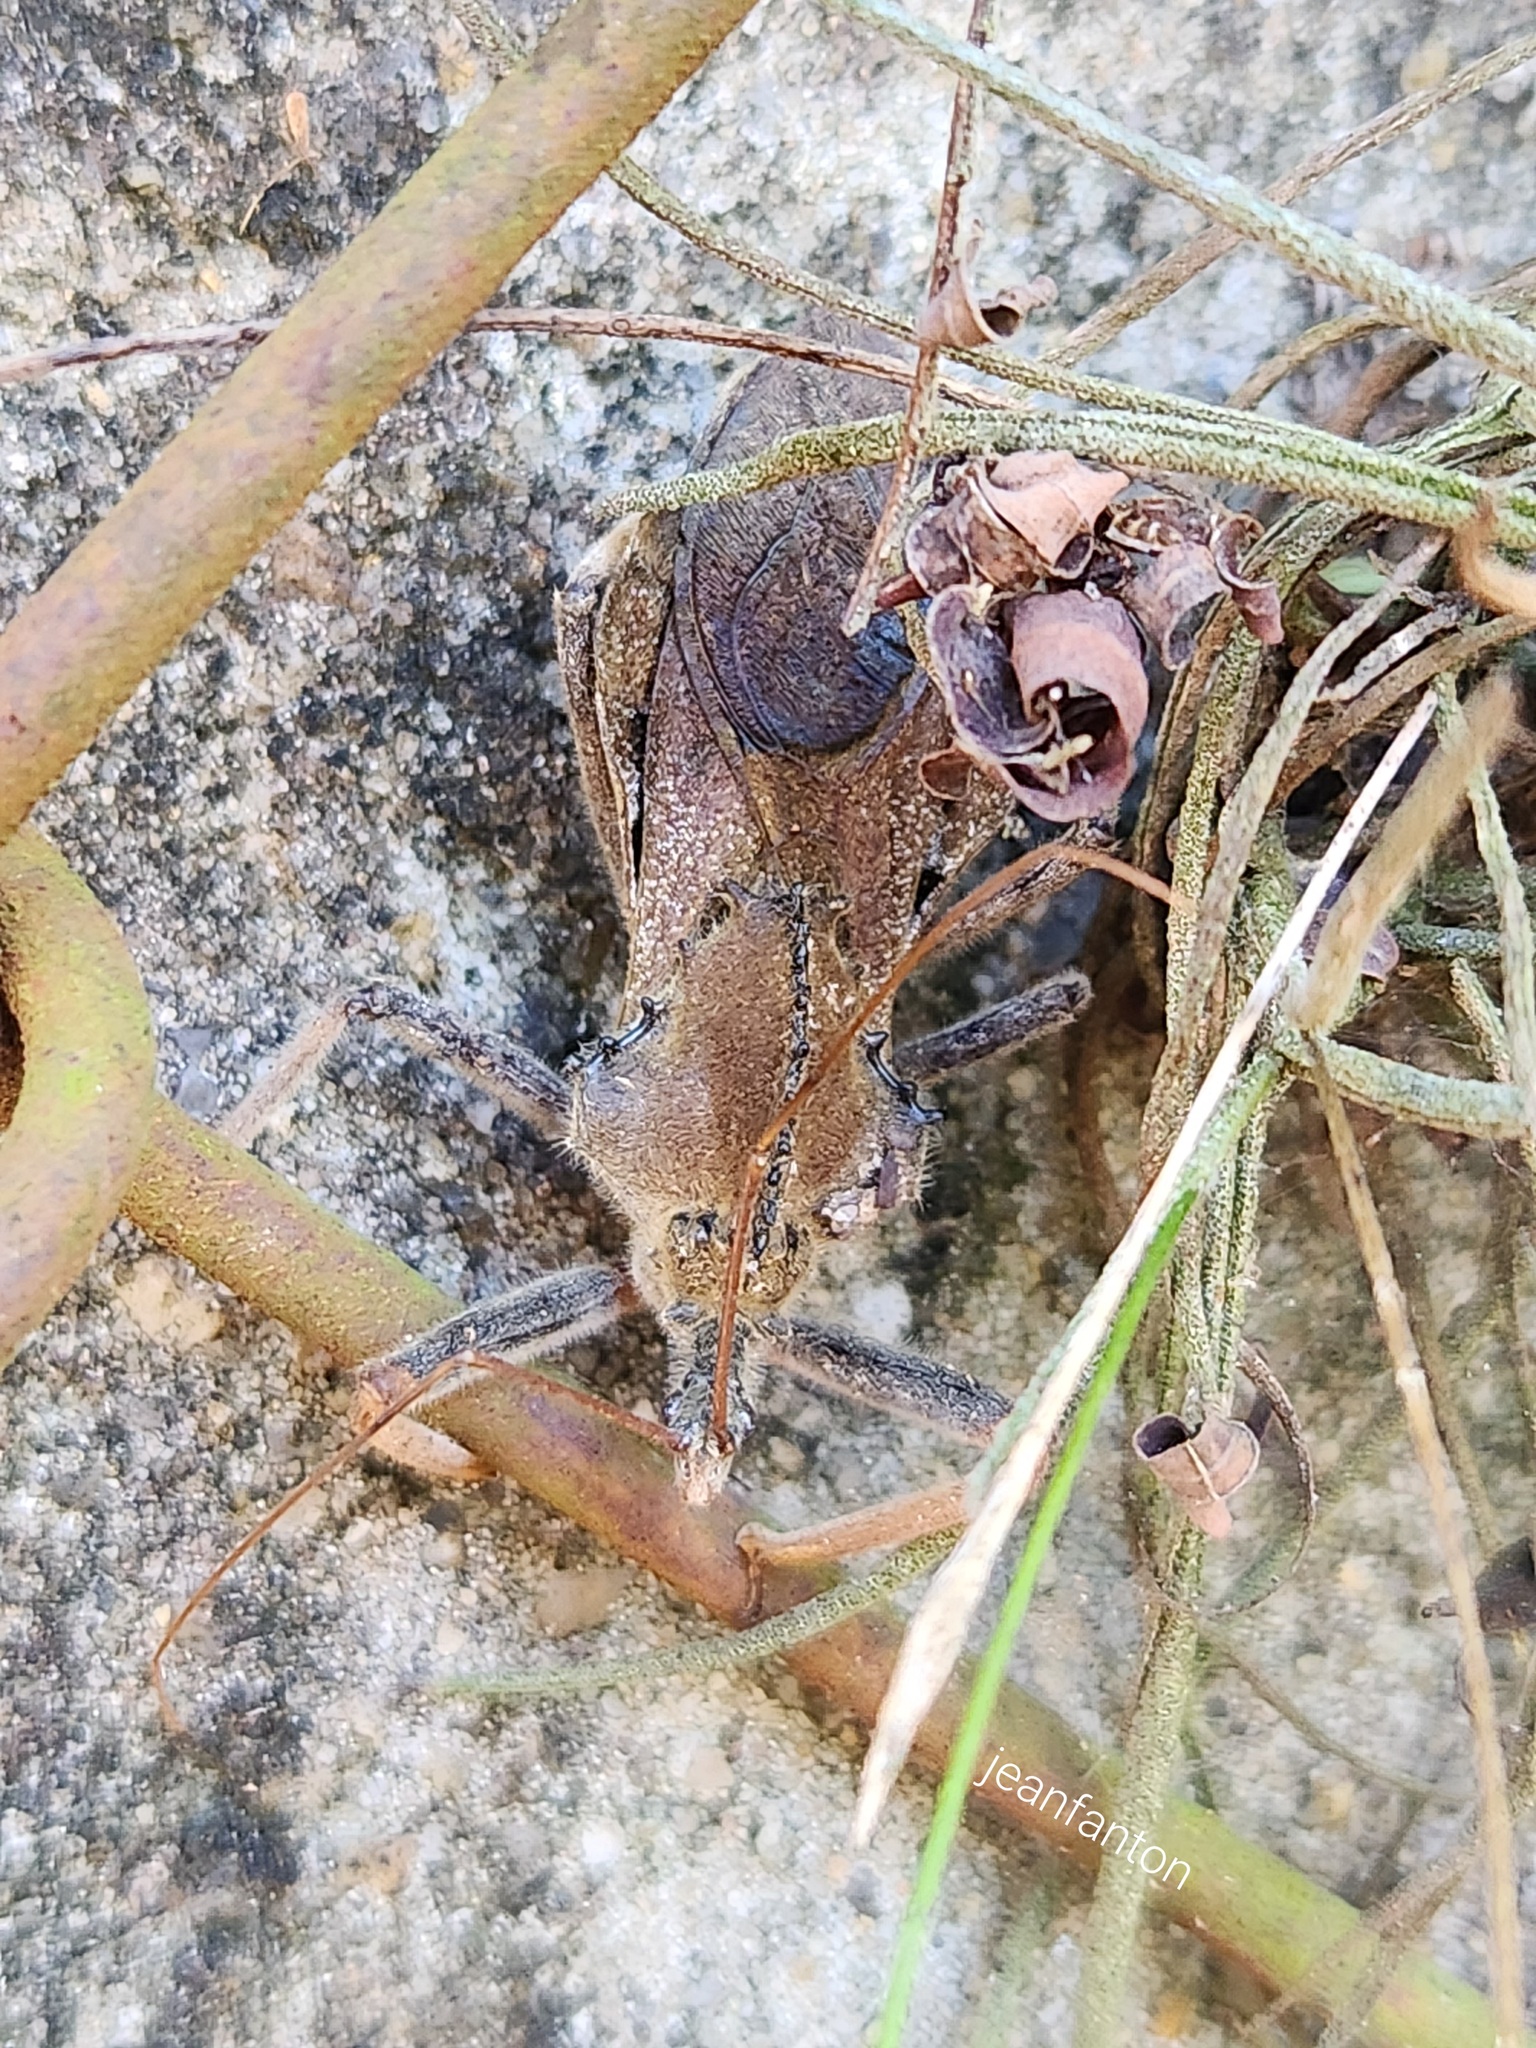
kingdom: Animalia
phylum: Arthropoda
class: Insecta
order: Hemiptera
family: Reduviidae
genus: Arilus
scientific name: Arilus carinatus
